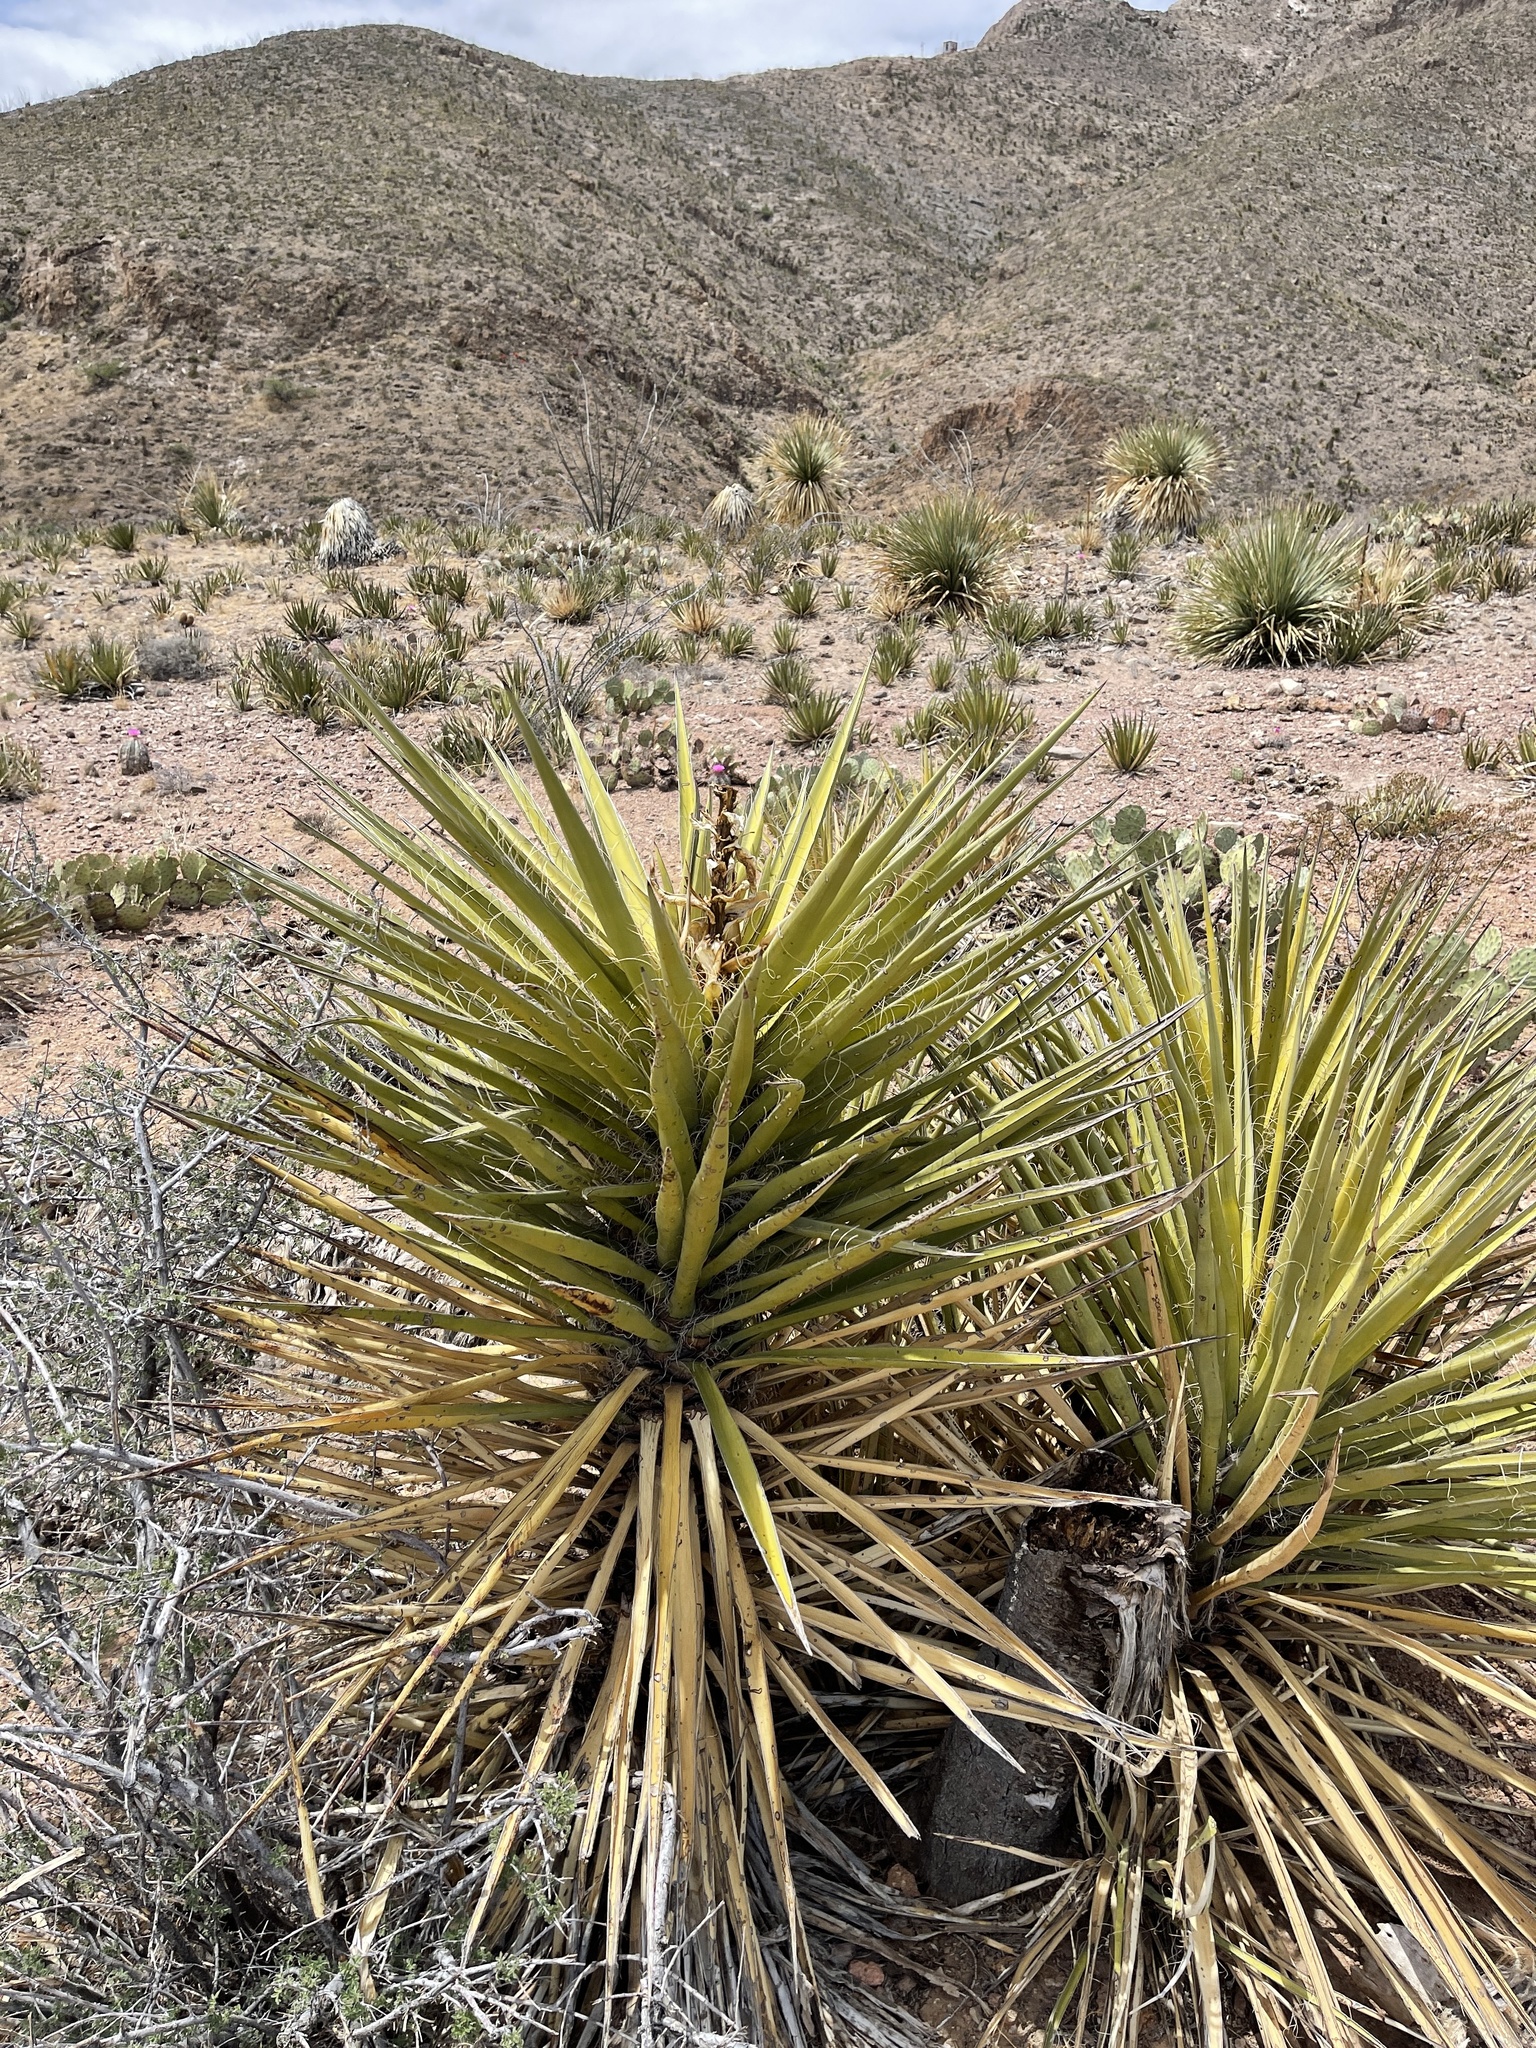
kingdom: Plantae
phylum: Tracheophyta
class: Liliopsida
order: Asparagales
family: Asparagaceae
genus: Yucca
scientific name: Yucca treculiana
